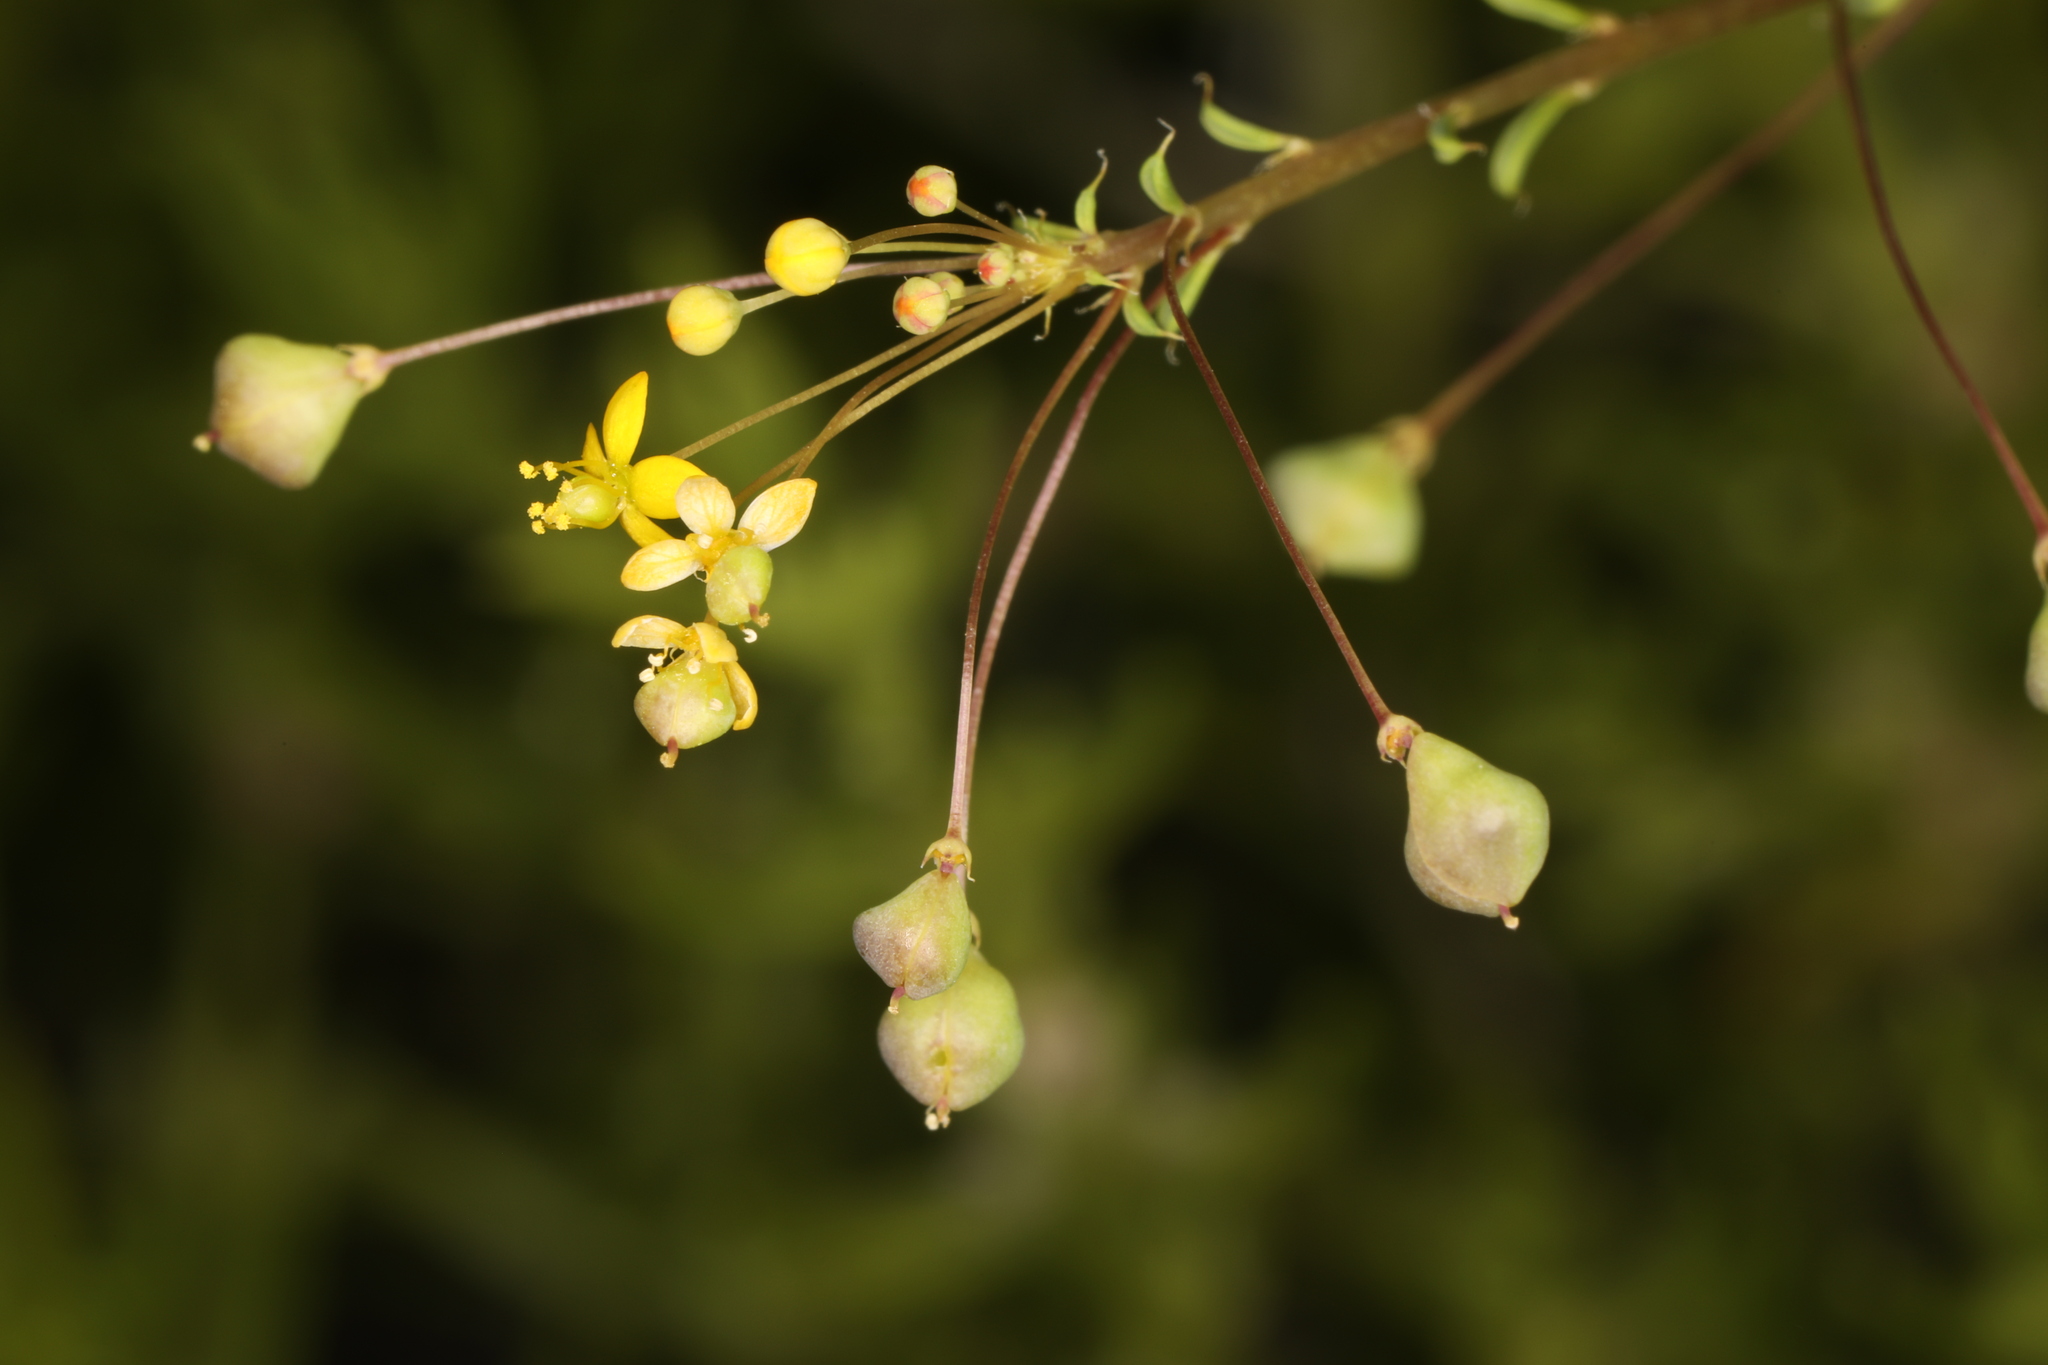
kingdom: Plantae
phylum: Tracheophyta
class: Magnoliopsida
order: Brassicales
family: Cleomaceae
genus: Cleomella
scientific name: Cleomella parviflora
